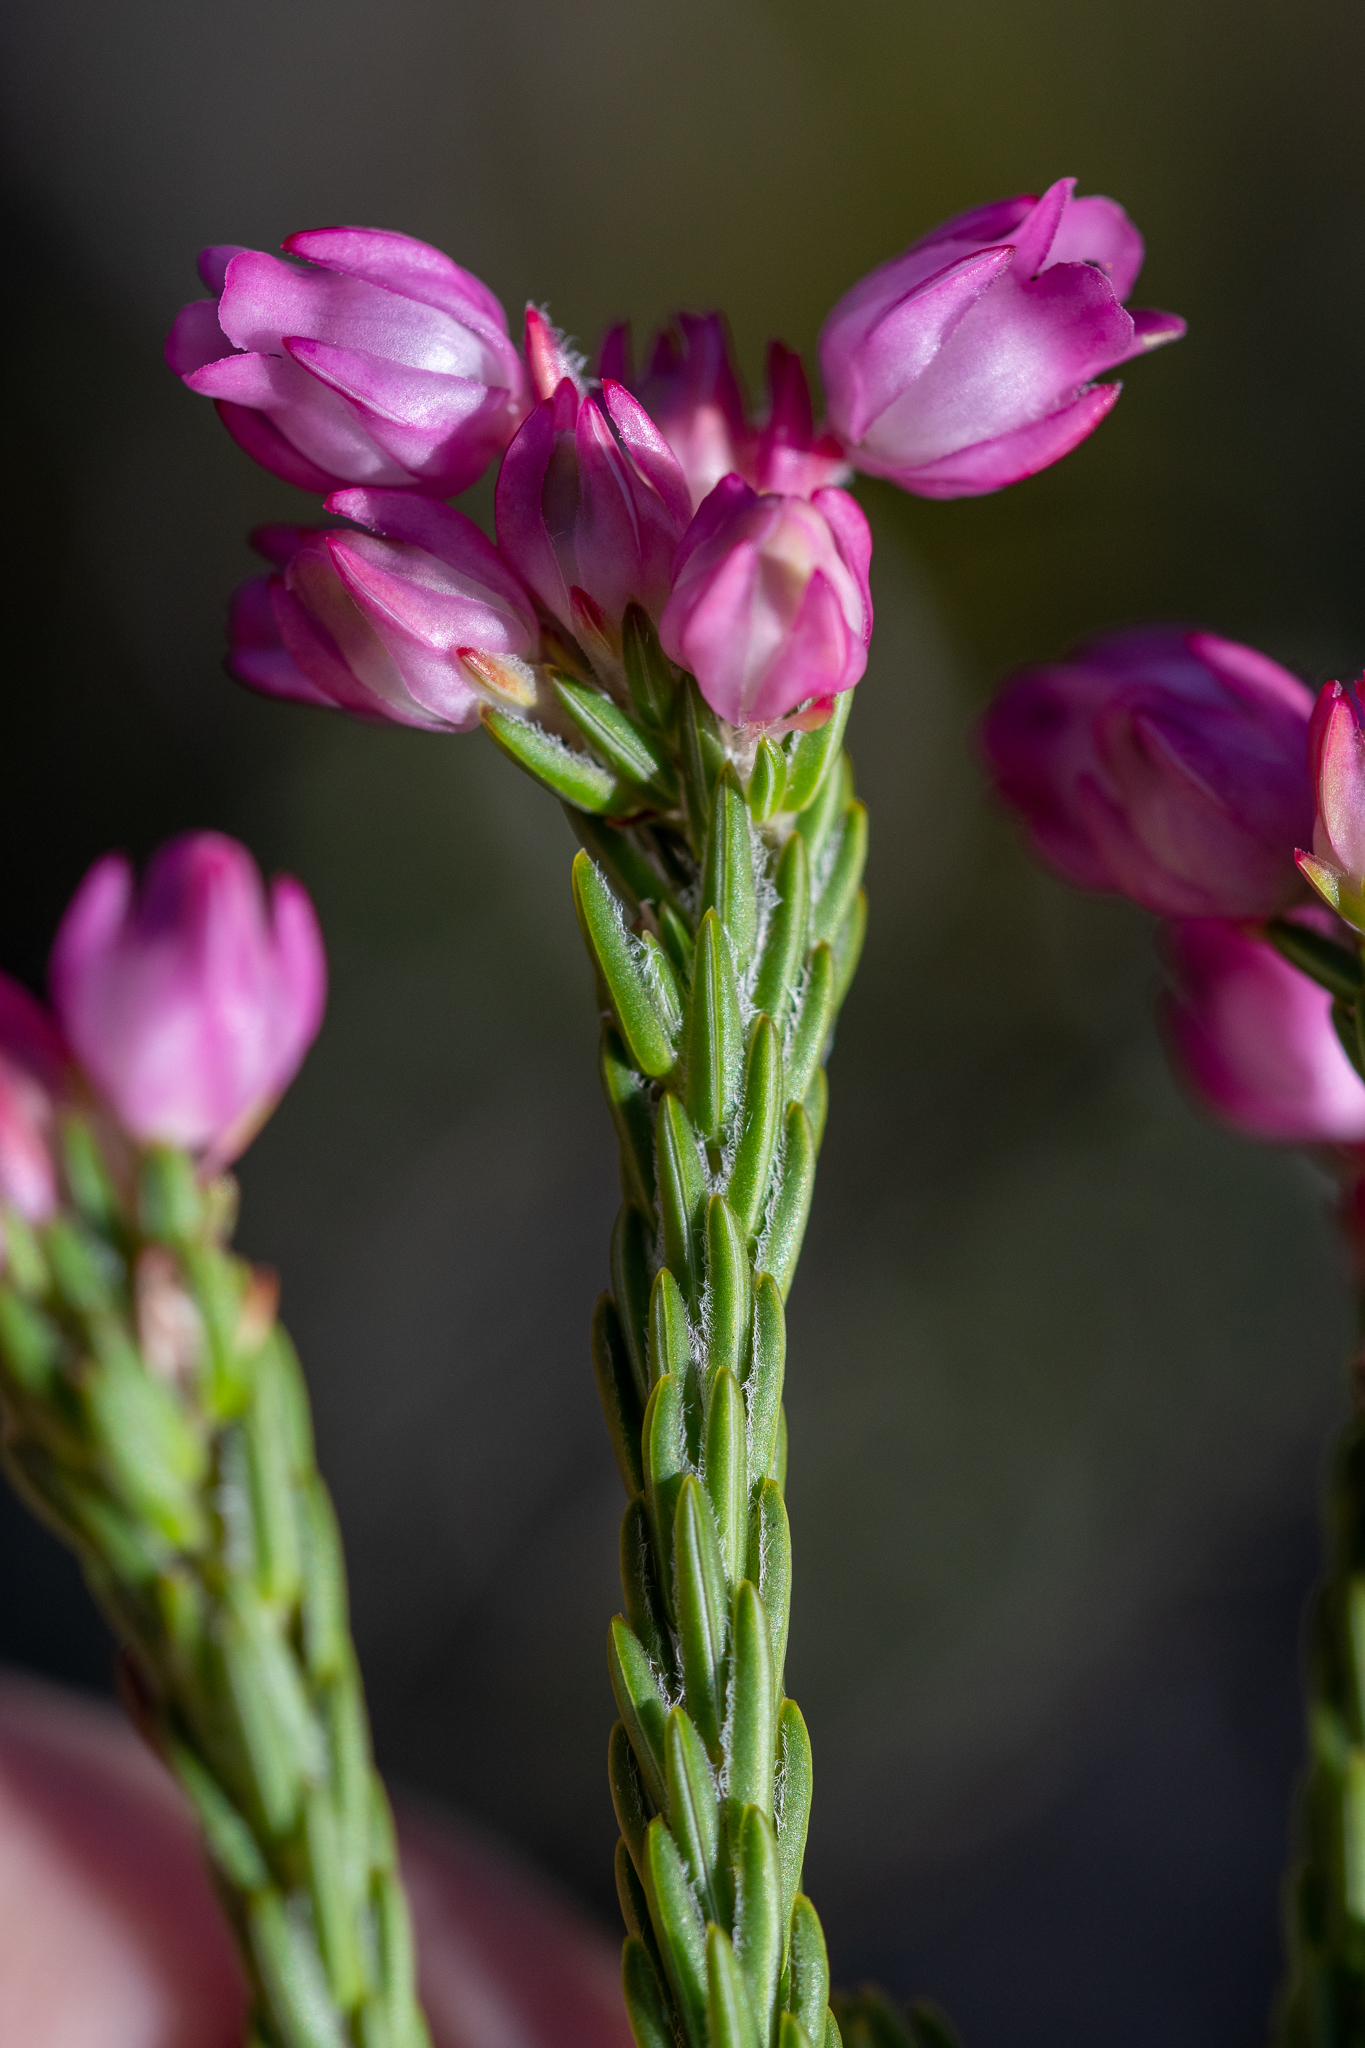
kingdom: Plantae
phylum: Tracheophyta
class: Magnoliopsida
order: Ericales
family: Ericaceae
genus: Erica
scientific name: Erica excavata
